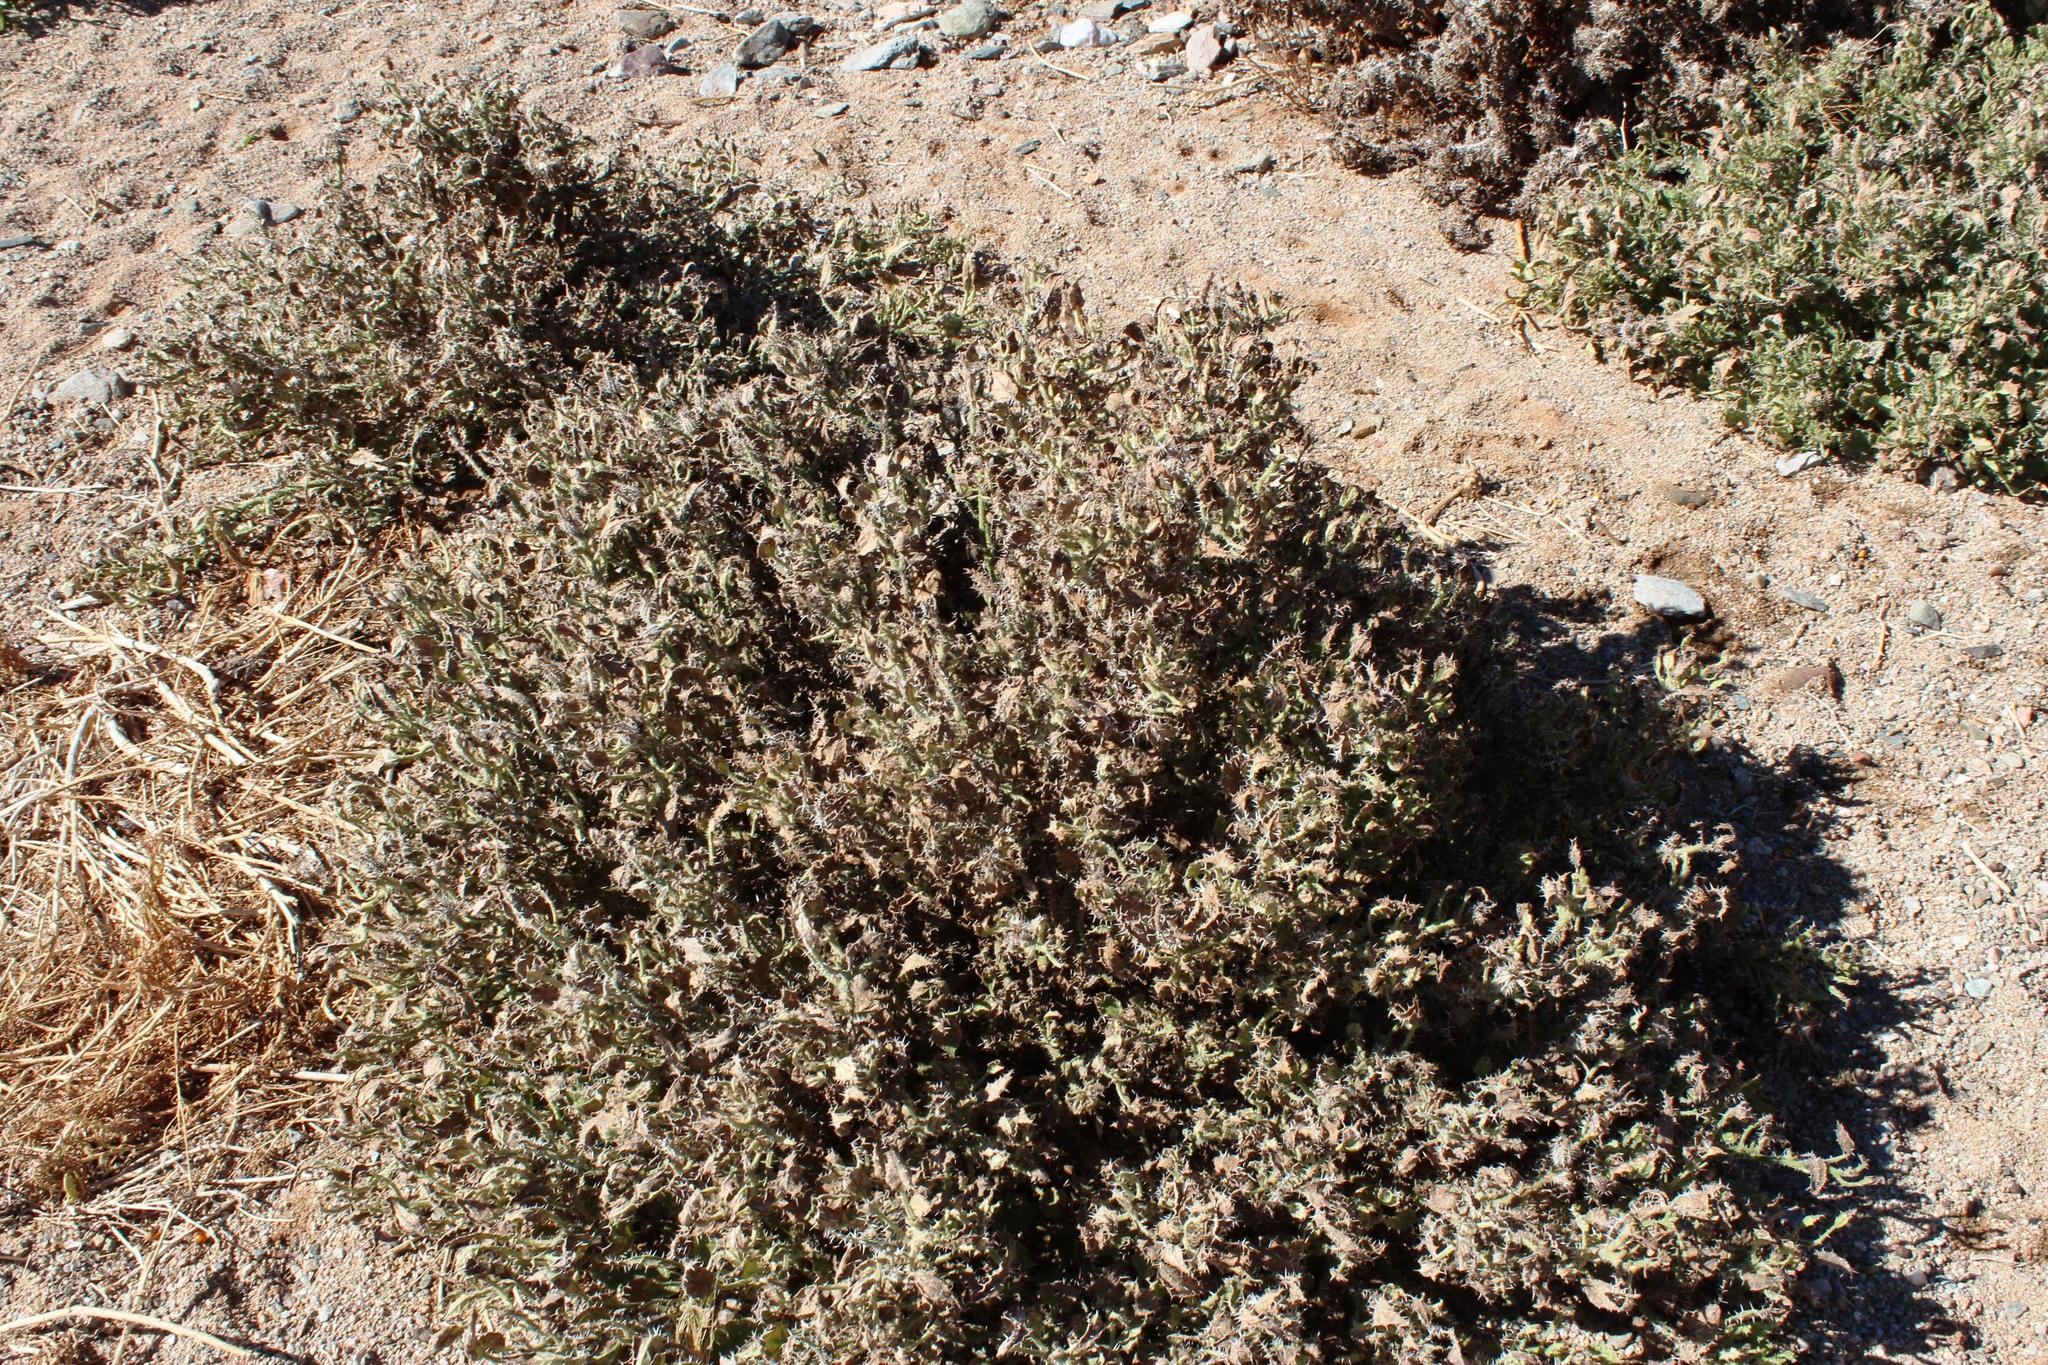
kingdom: Plantae
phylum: Tracheophyta
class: Magnoliopsida
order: Boraginales
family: Boraginaceae
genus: Codon
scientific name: Codon royenii
